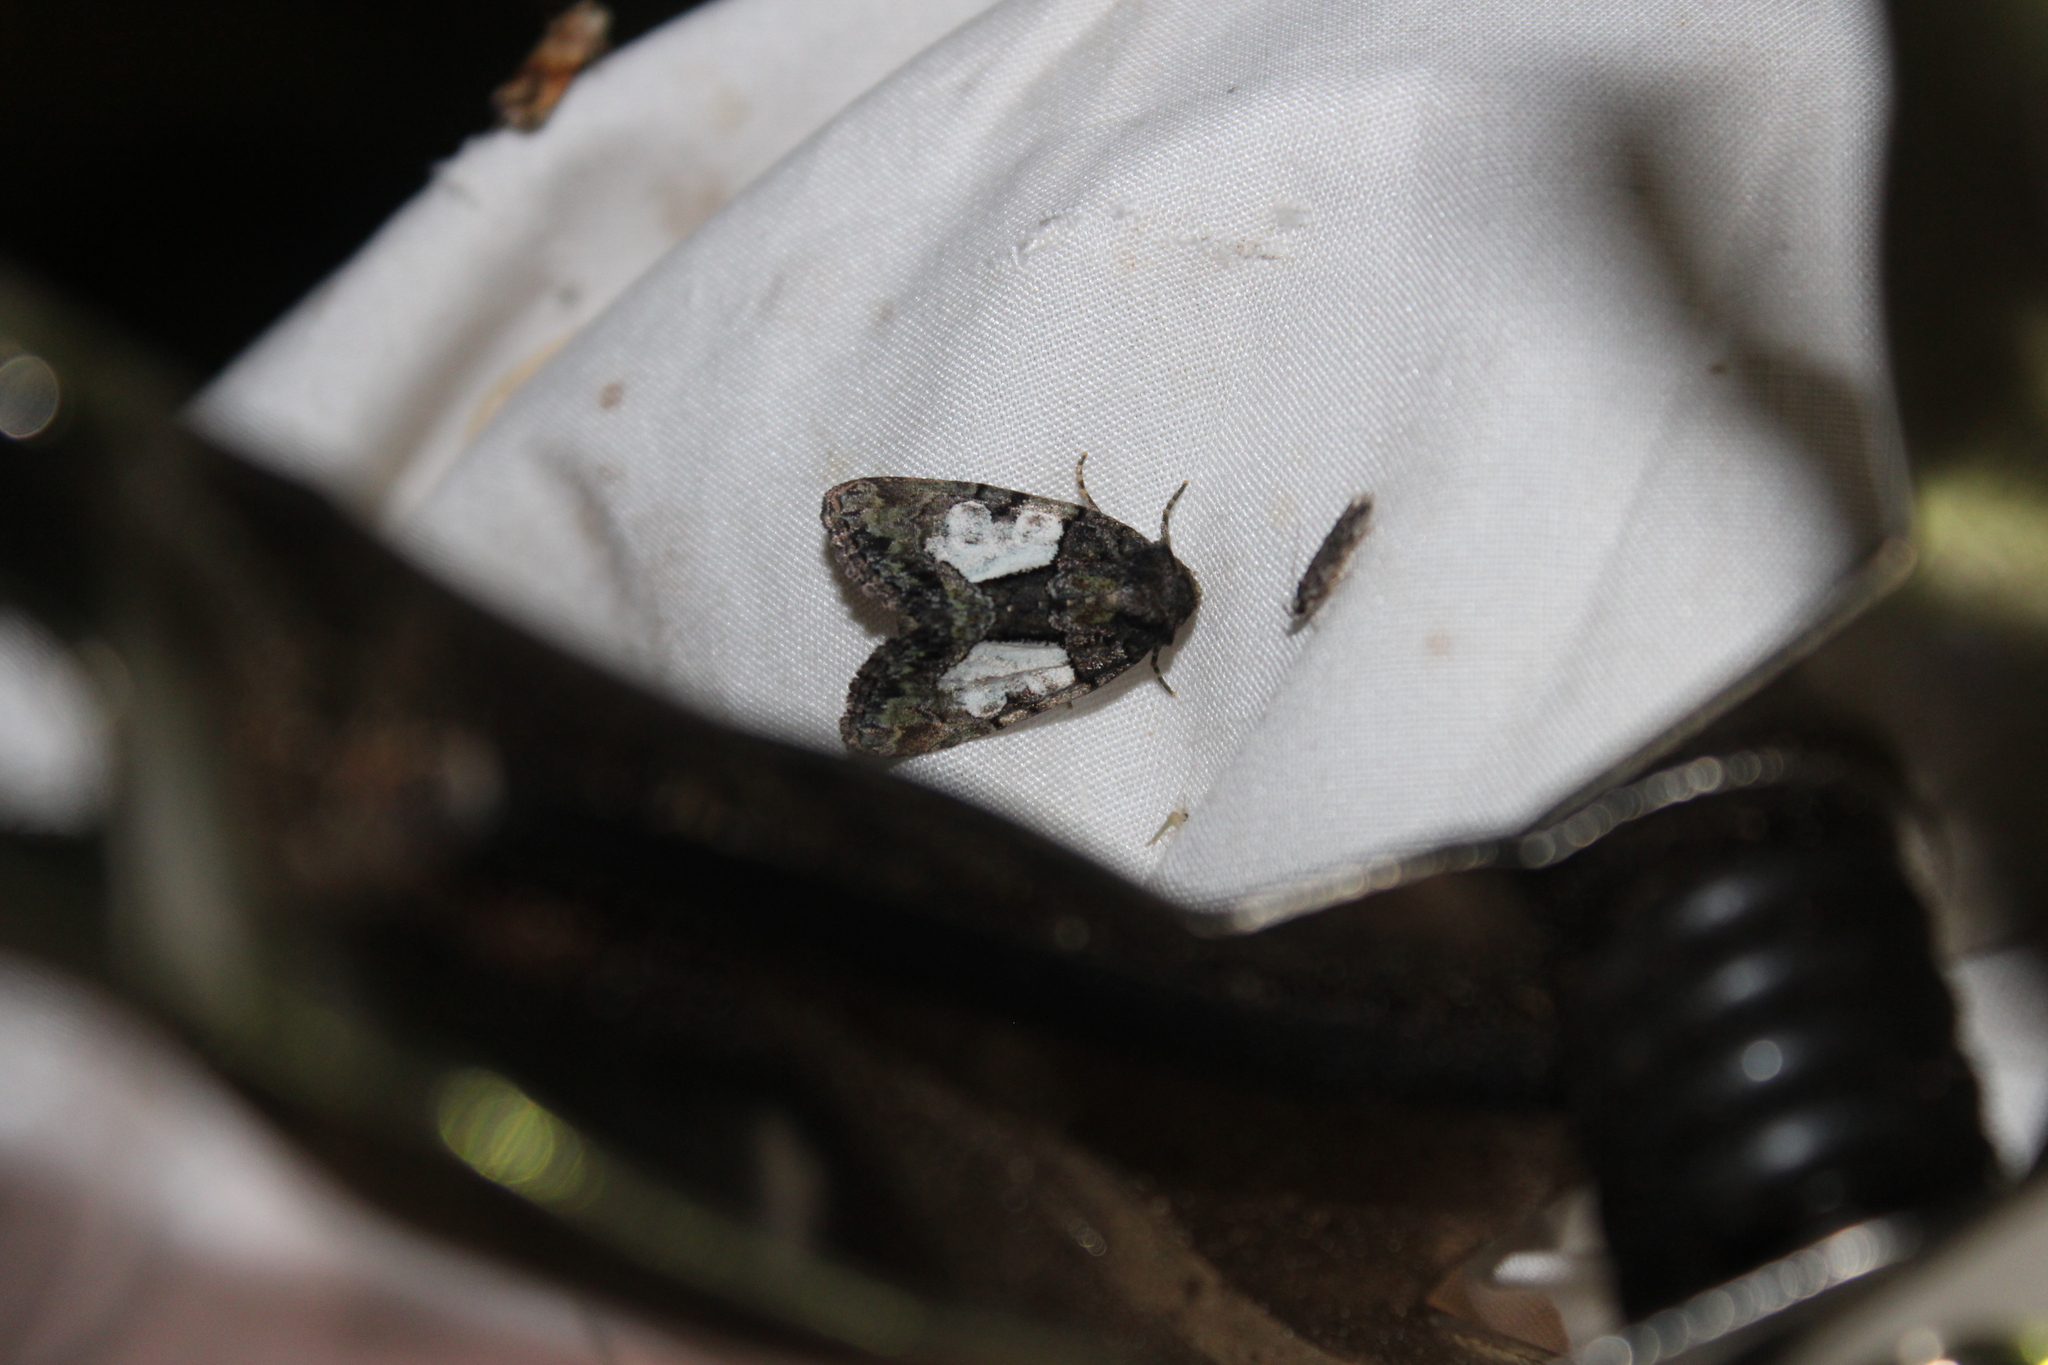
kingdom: Animalia
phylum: Arthropoda
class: Insecta
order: Lepidoptera
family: Noctuidae
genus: Chytonix
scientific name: Chytonix palliatricula
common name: Cloaked marvel
